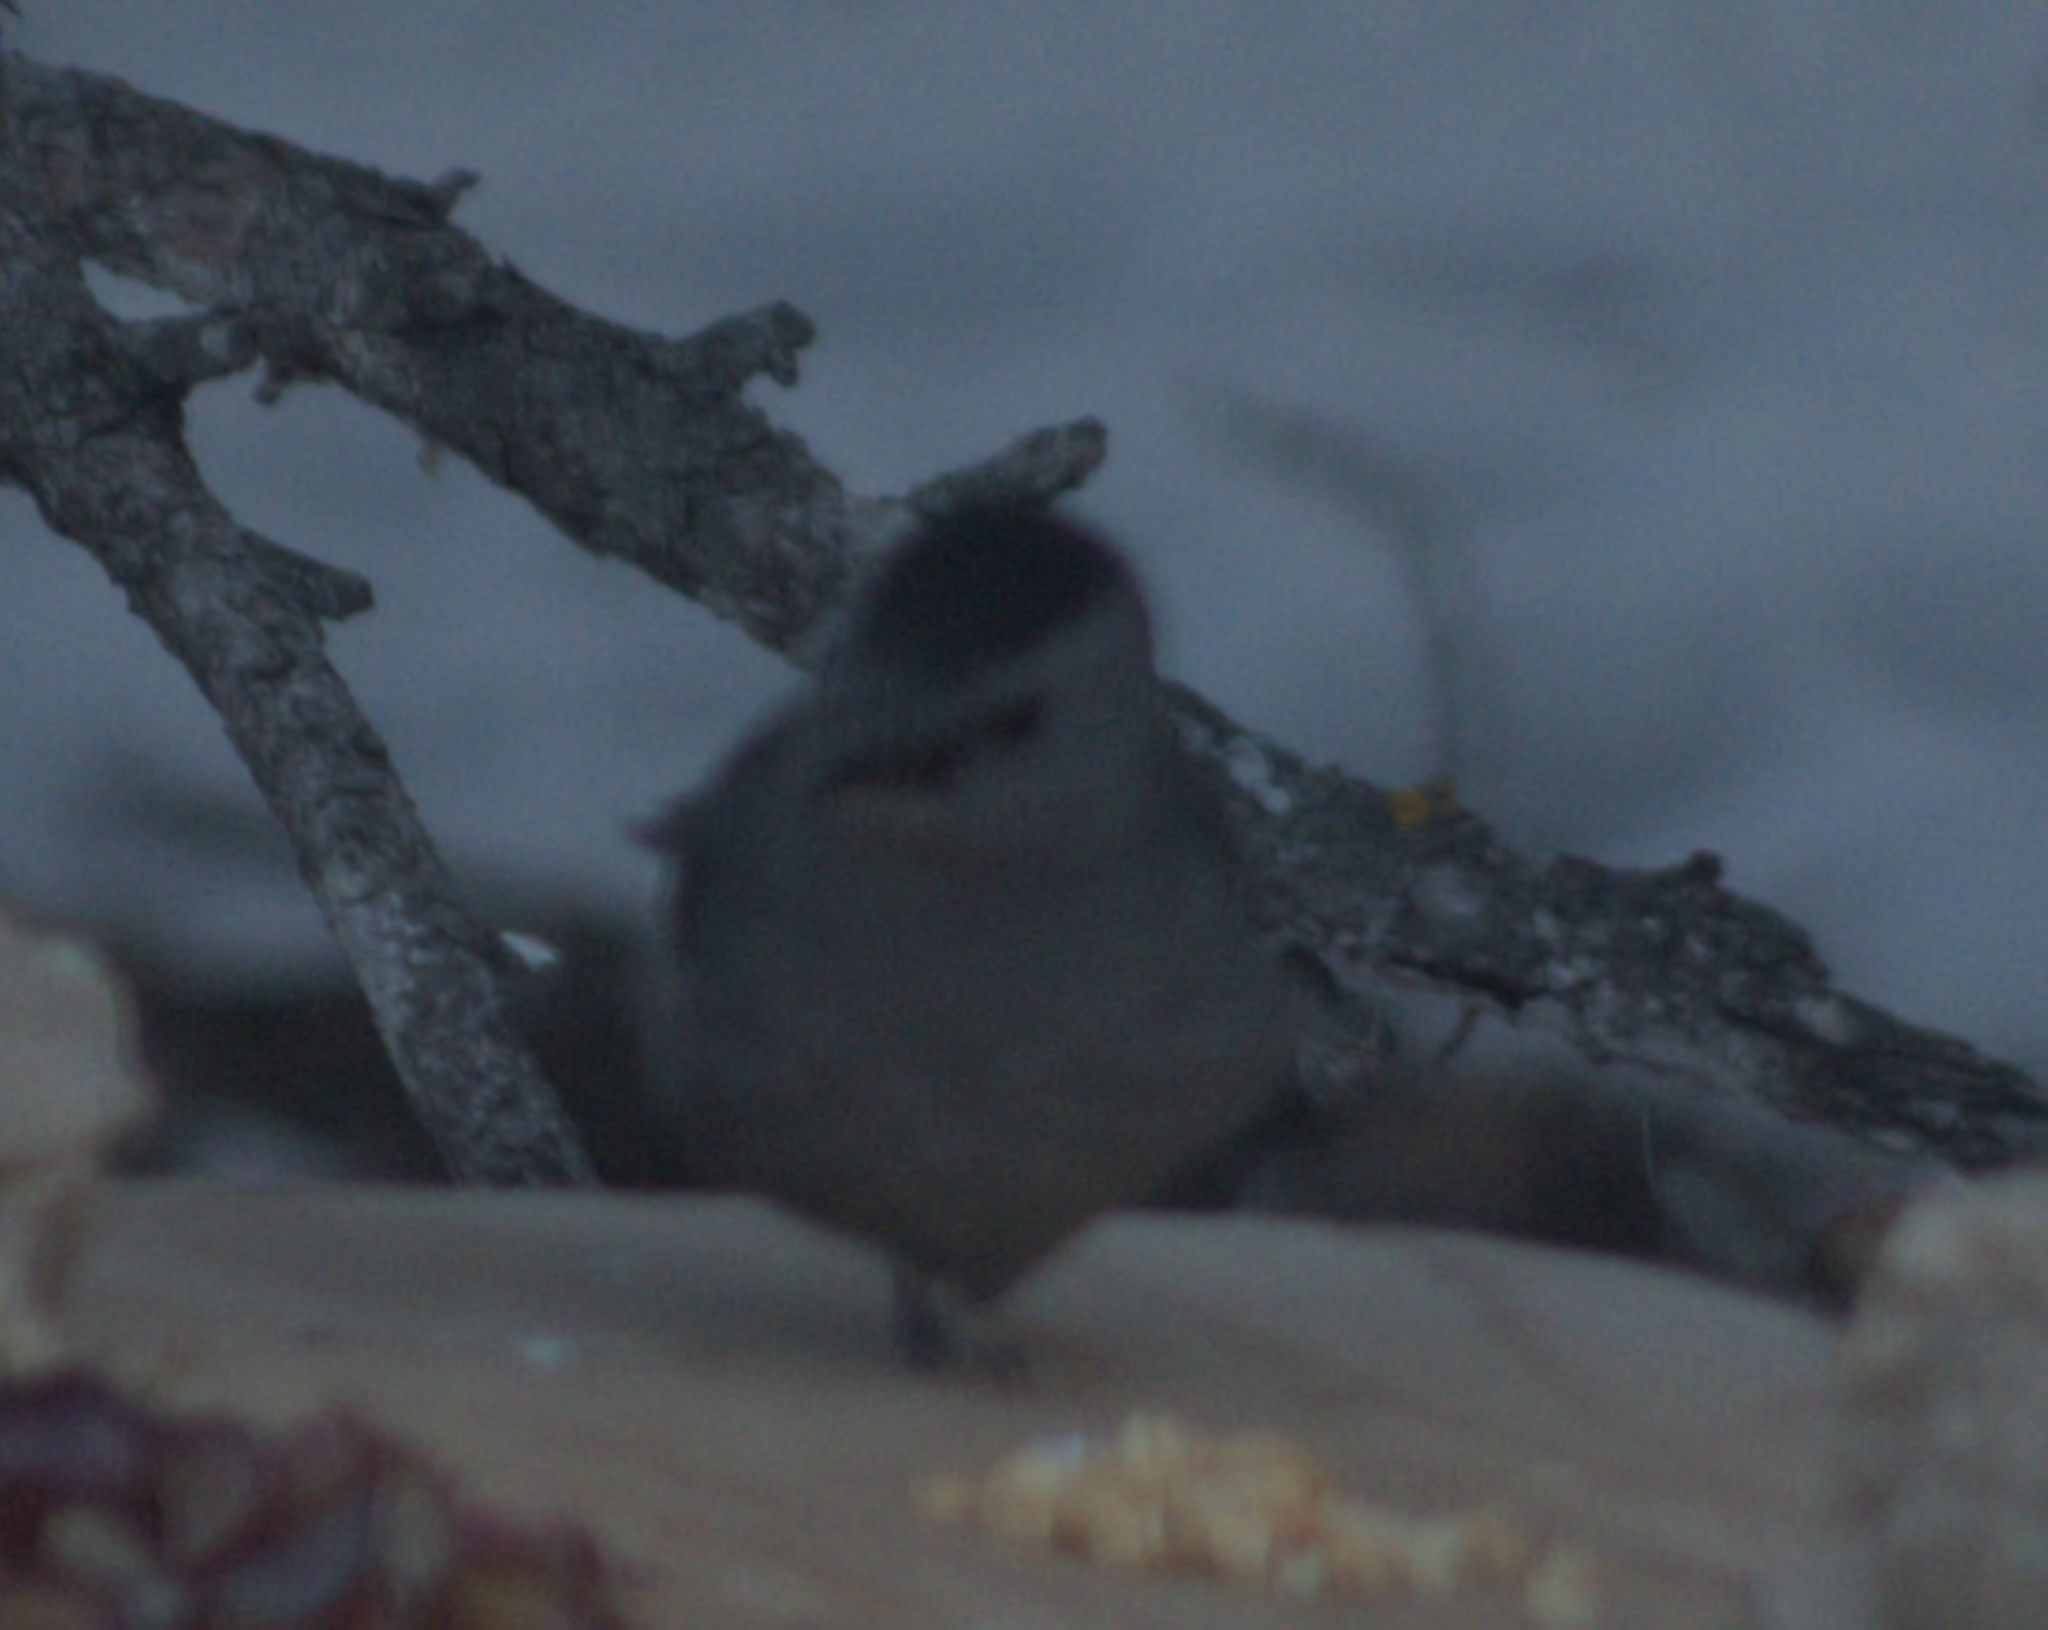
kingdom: Animalia
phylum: Chordata
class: Aves
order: Passeriformes
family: Mimidae
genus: Dumetella
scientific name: Dumetella carolinensis
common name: Gray catbird
